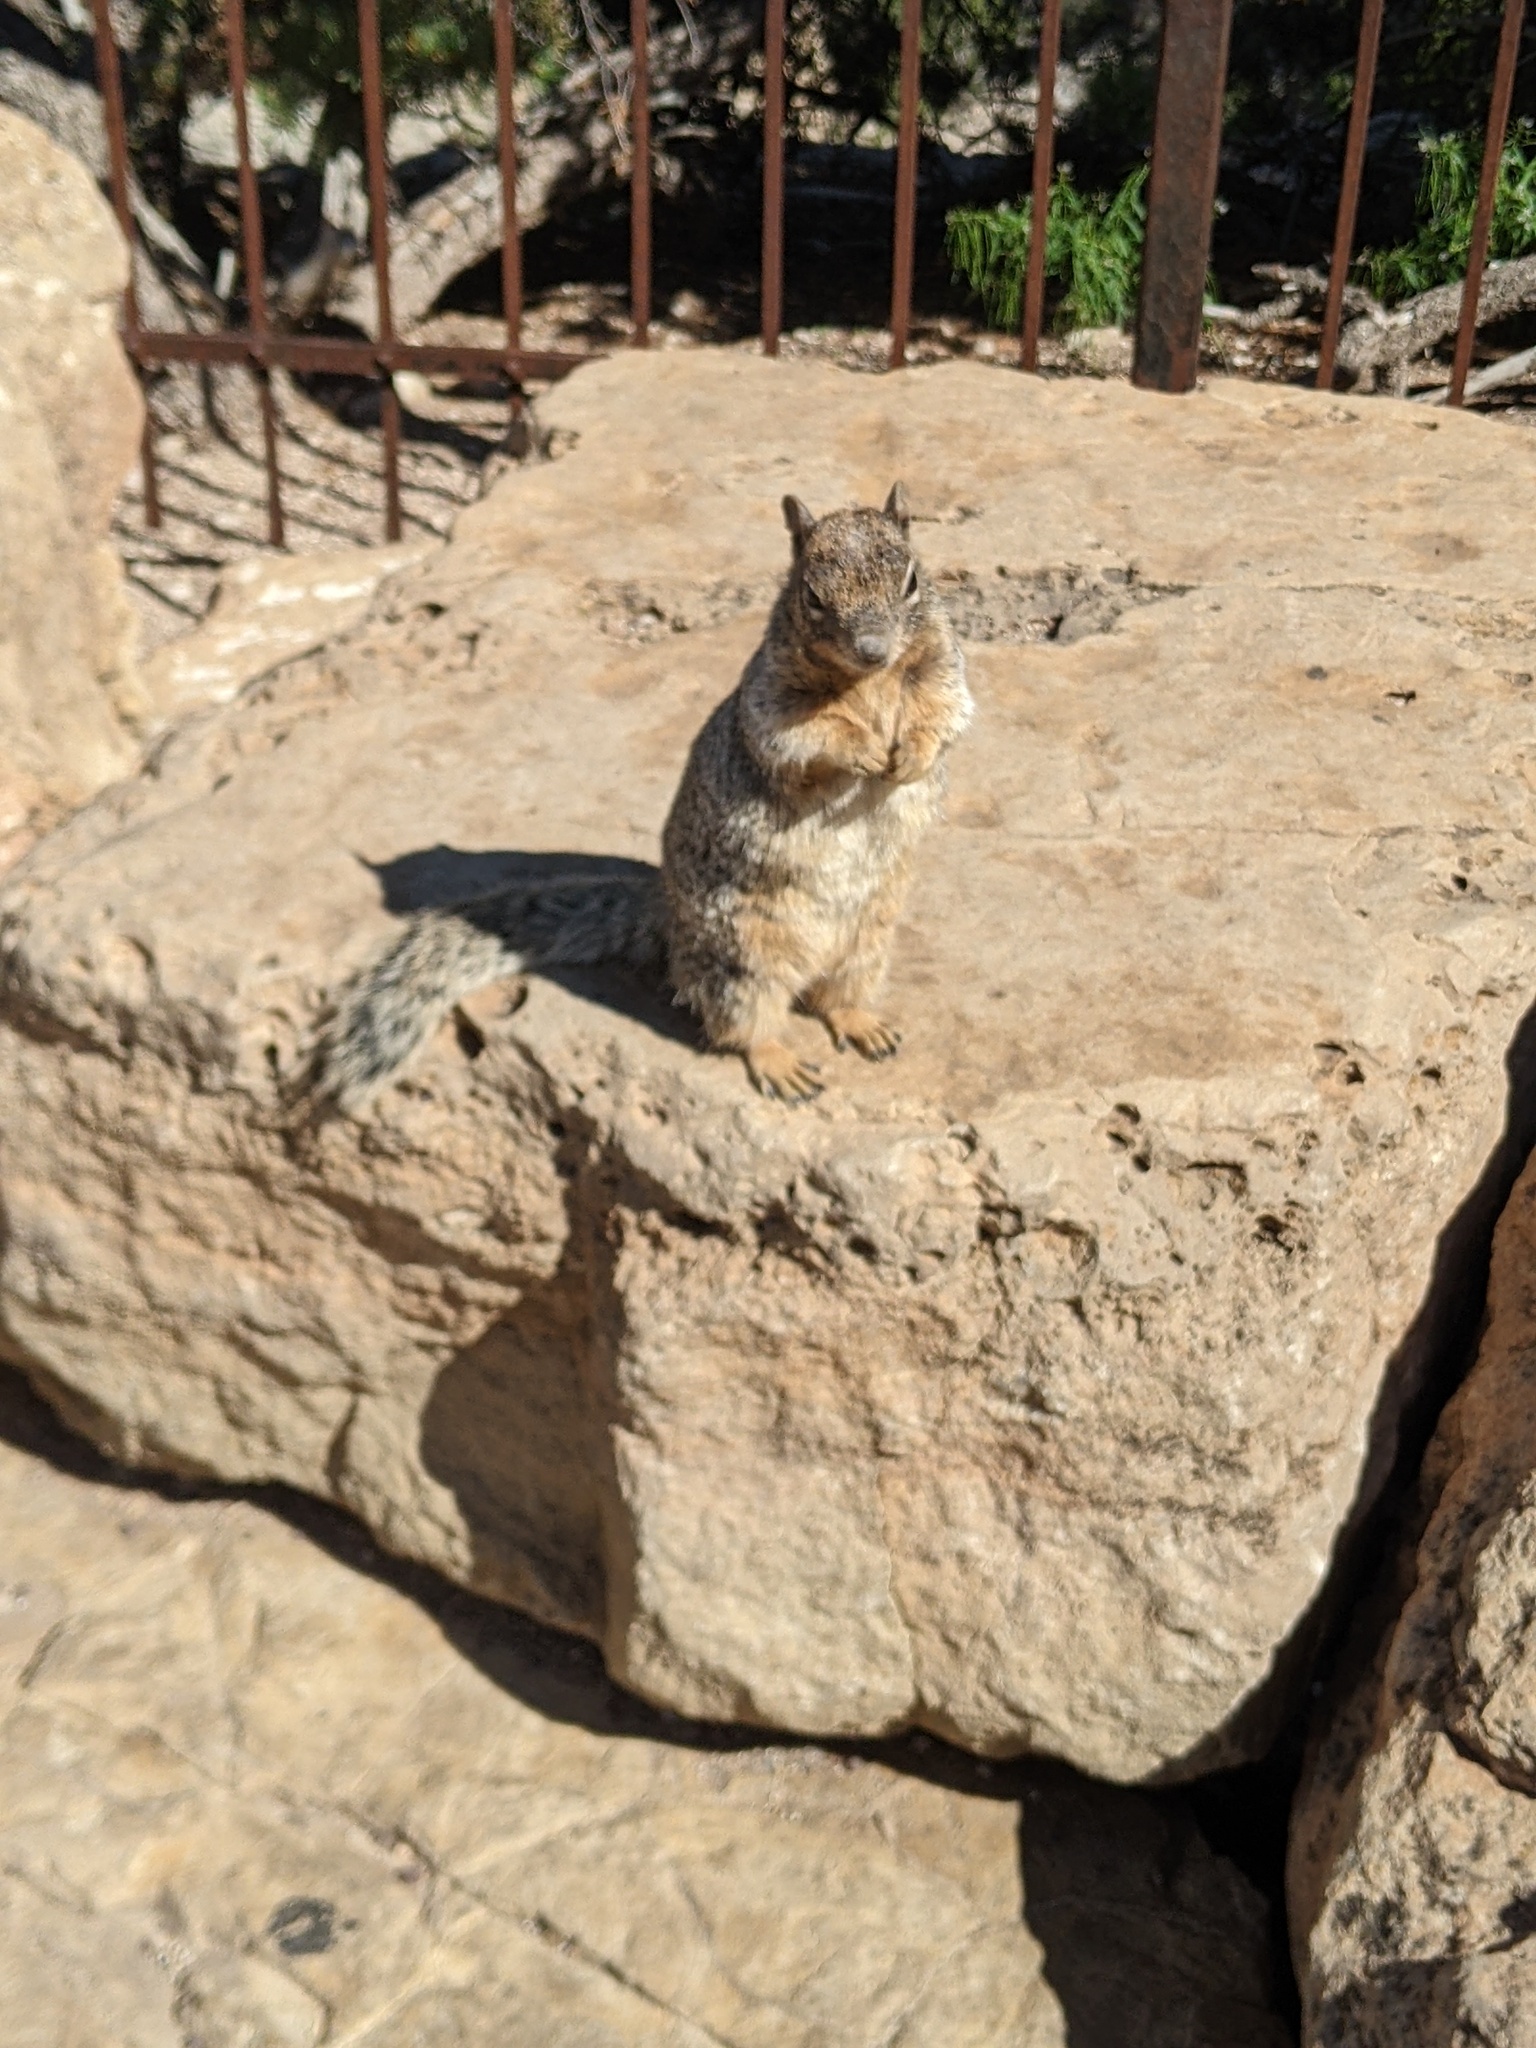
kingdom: Animalia
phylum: Chordata
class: Mammalia
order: Rodentia
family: Sciuridae
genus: Otospermophilus
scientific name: Otospermophilus variegatus
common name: Rock squirrel
